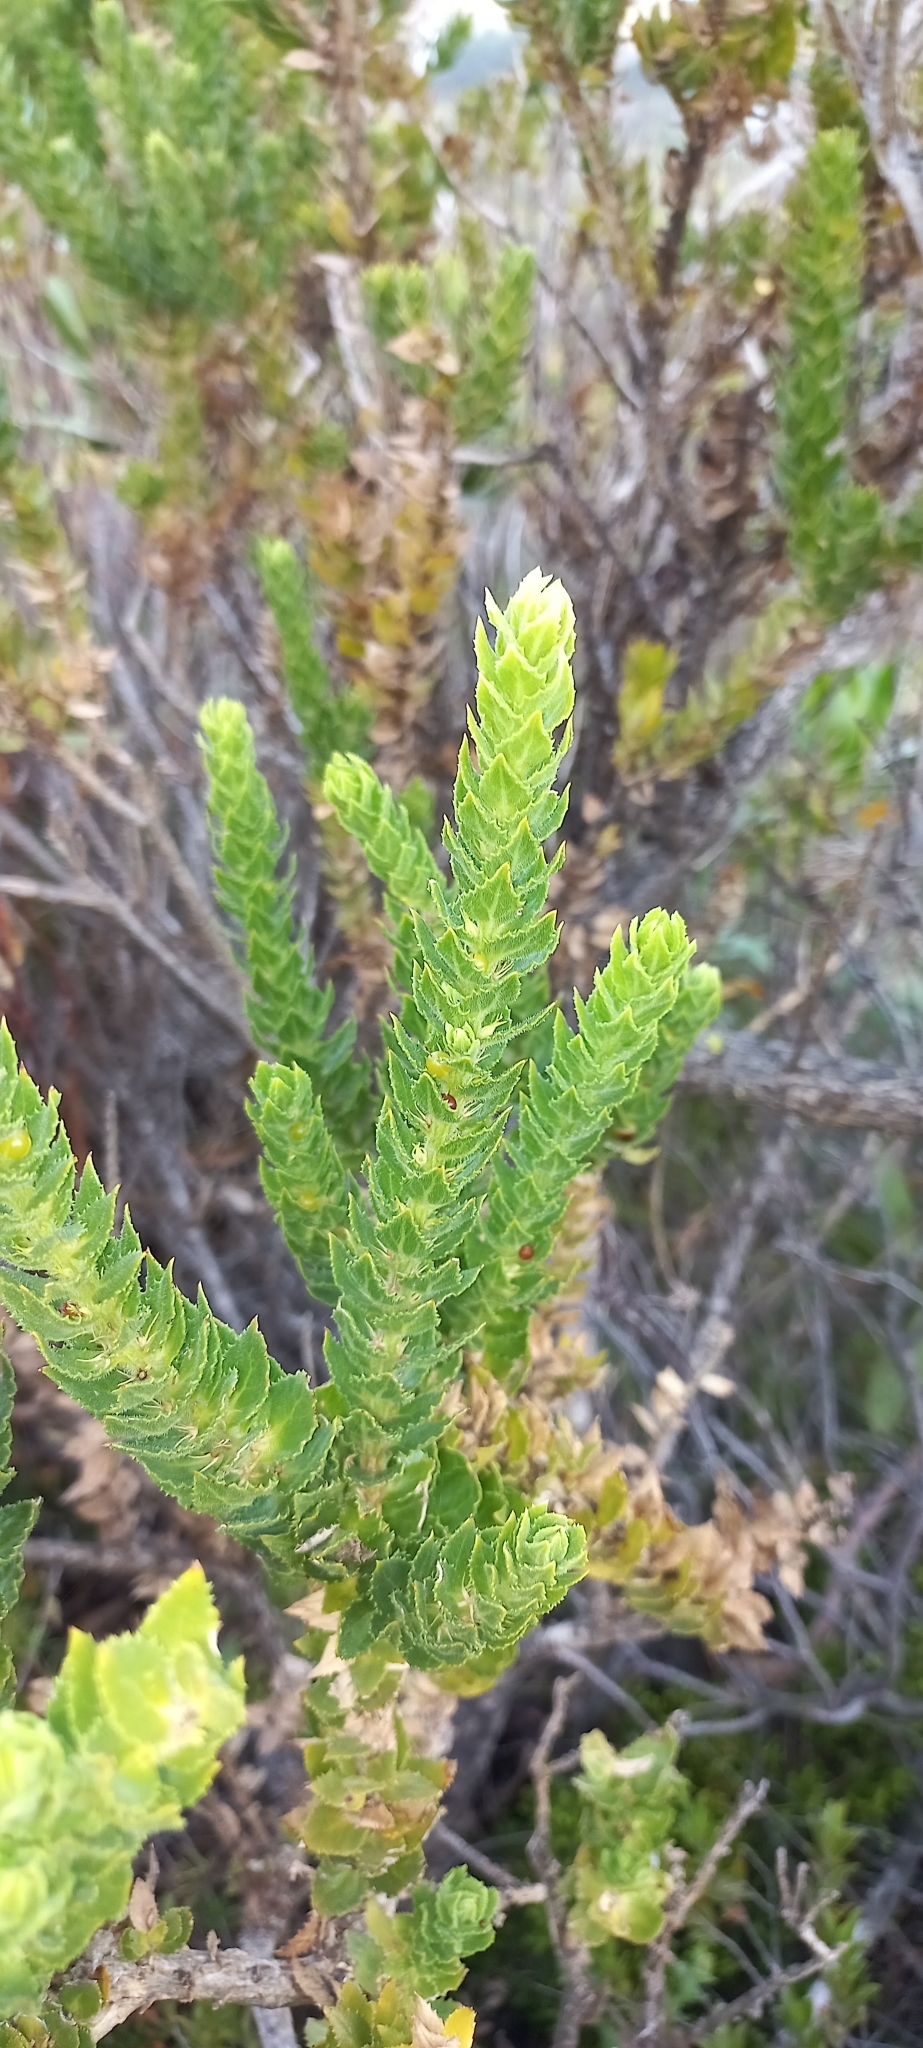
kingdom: Plantae
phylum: Tracheophyta
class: Magnoliopsida
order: Lamiales
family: Scrophulariaceae
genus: Oftia
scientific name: Oftia africana
